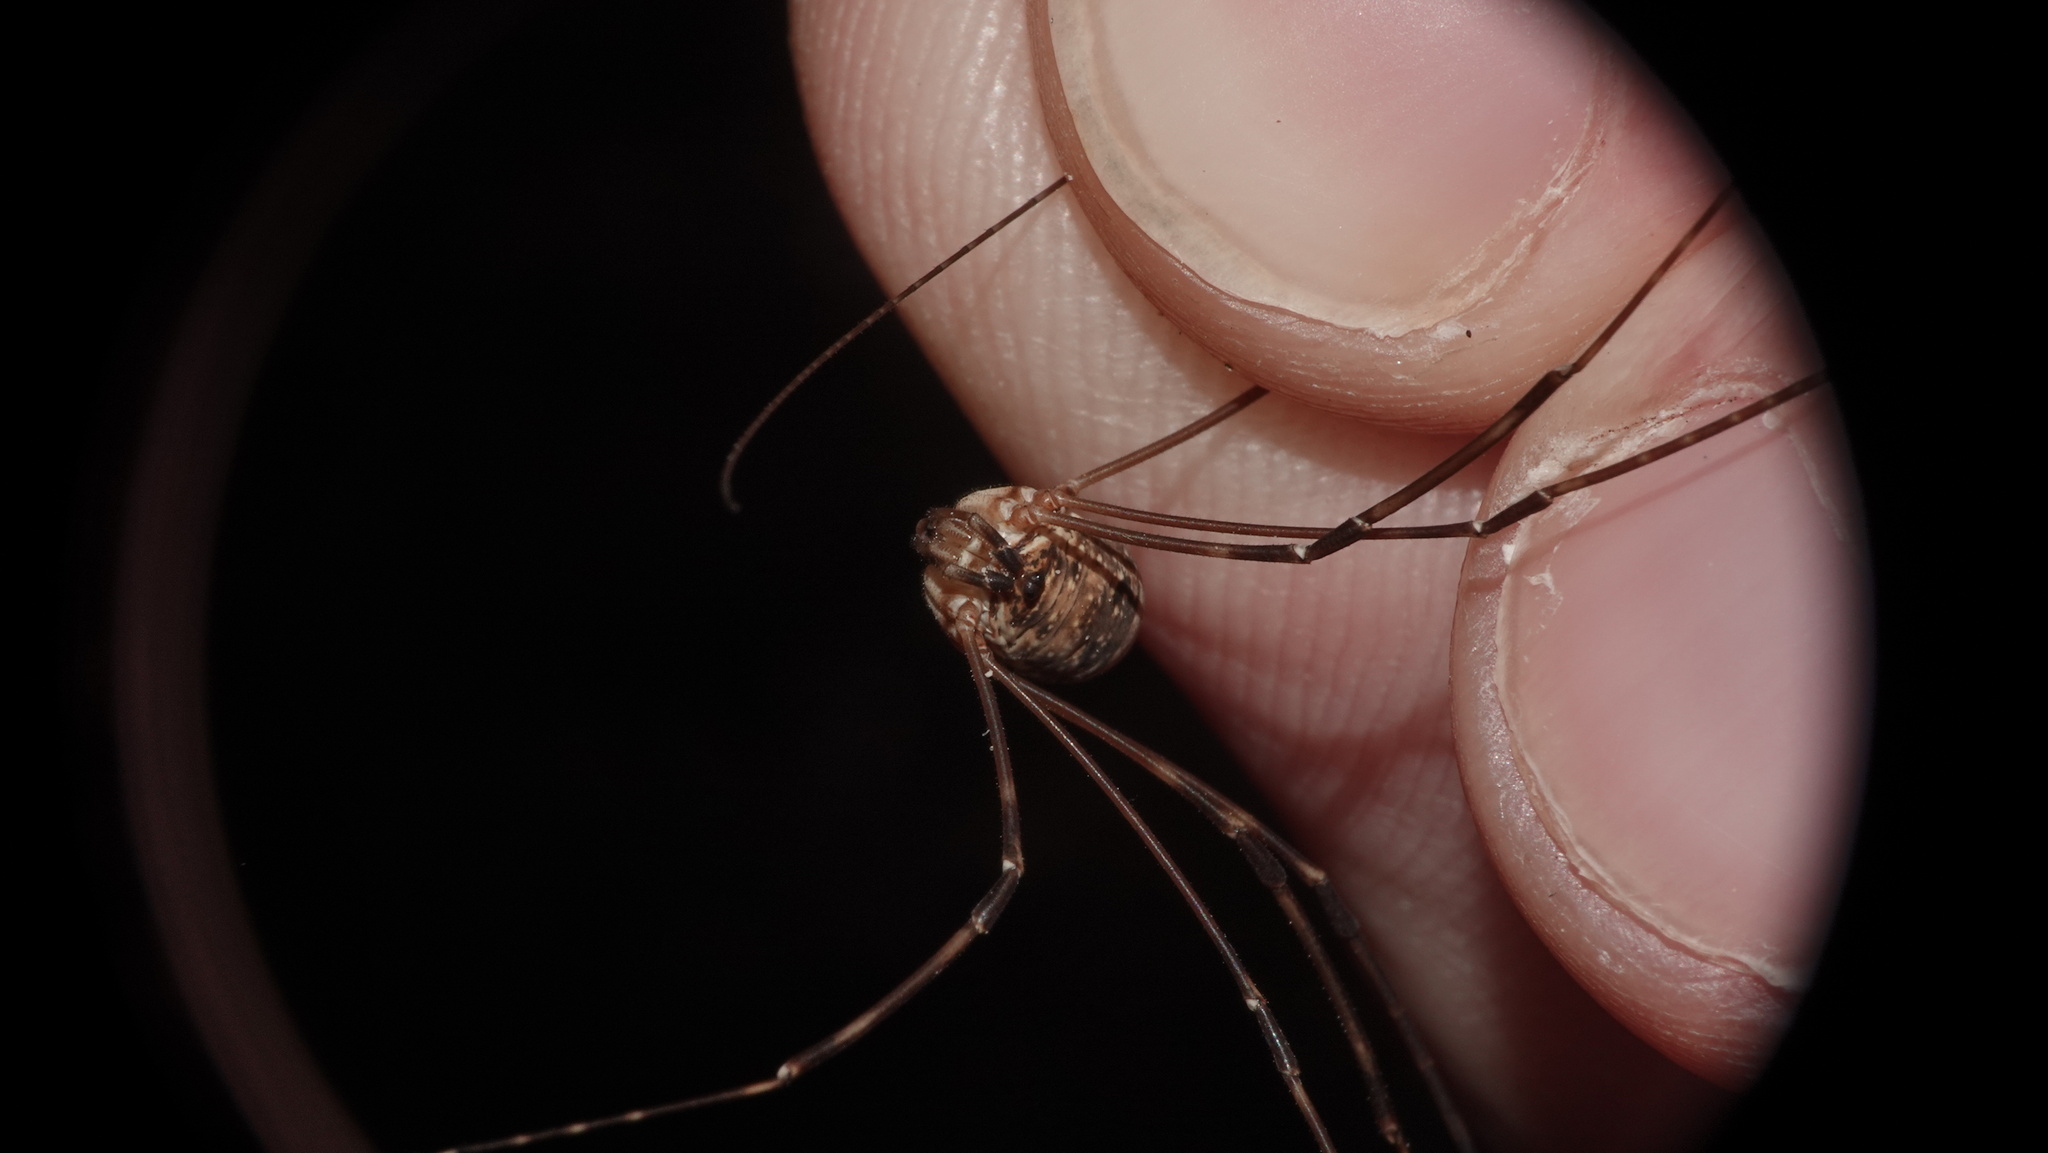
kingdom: Animalia
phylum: Arthropoda
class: Arachnida
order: Opiliones
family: Phalangiidae
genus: Amilenus
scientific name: Amilenus aurantiacus
